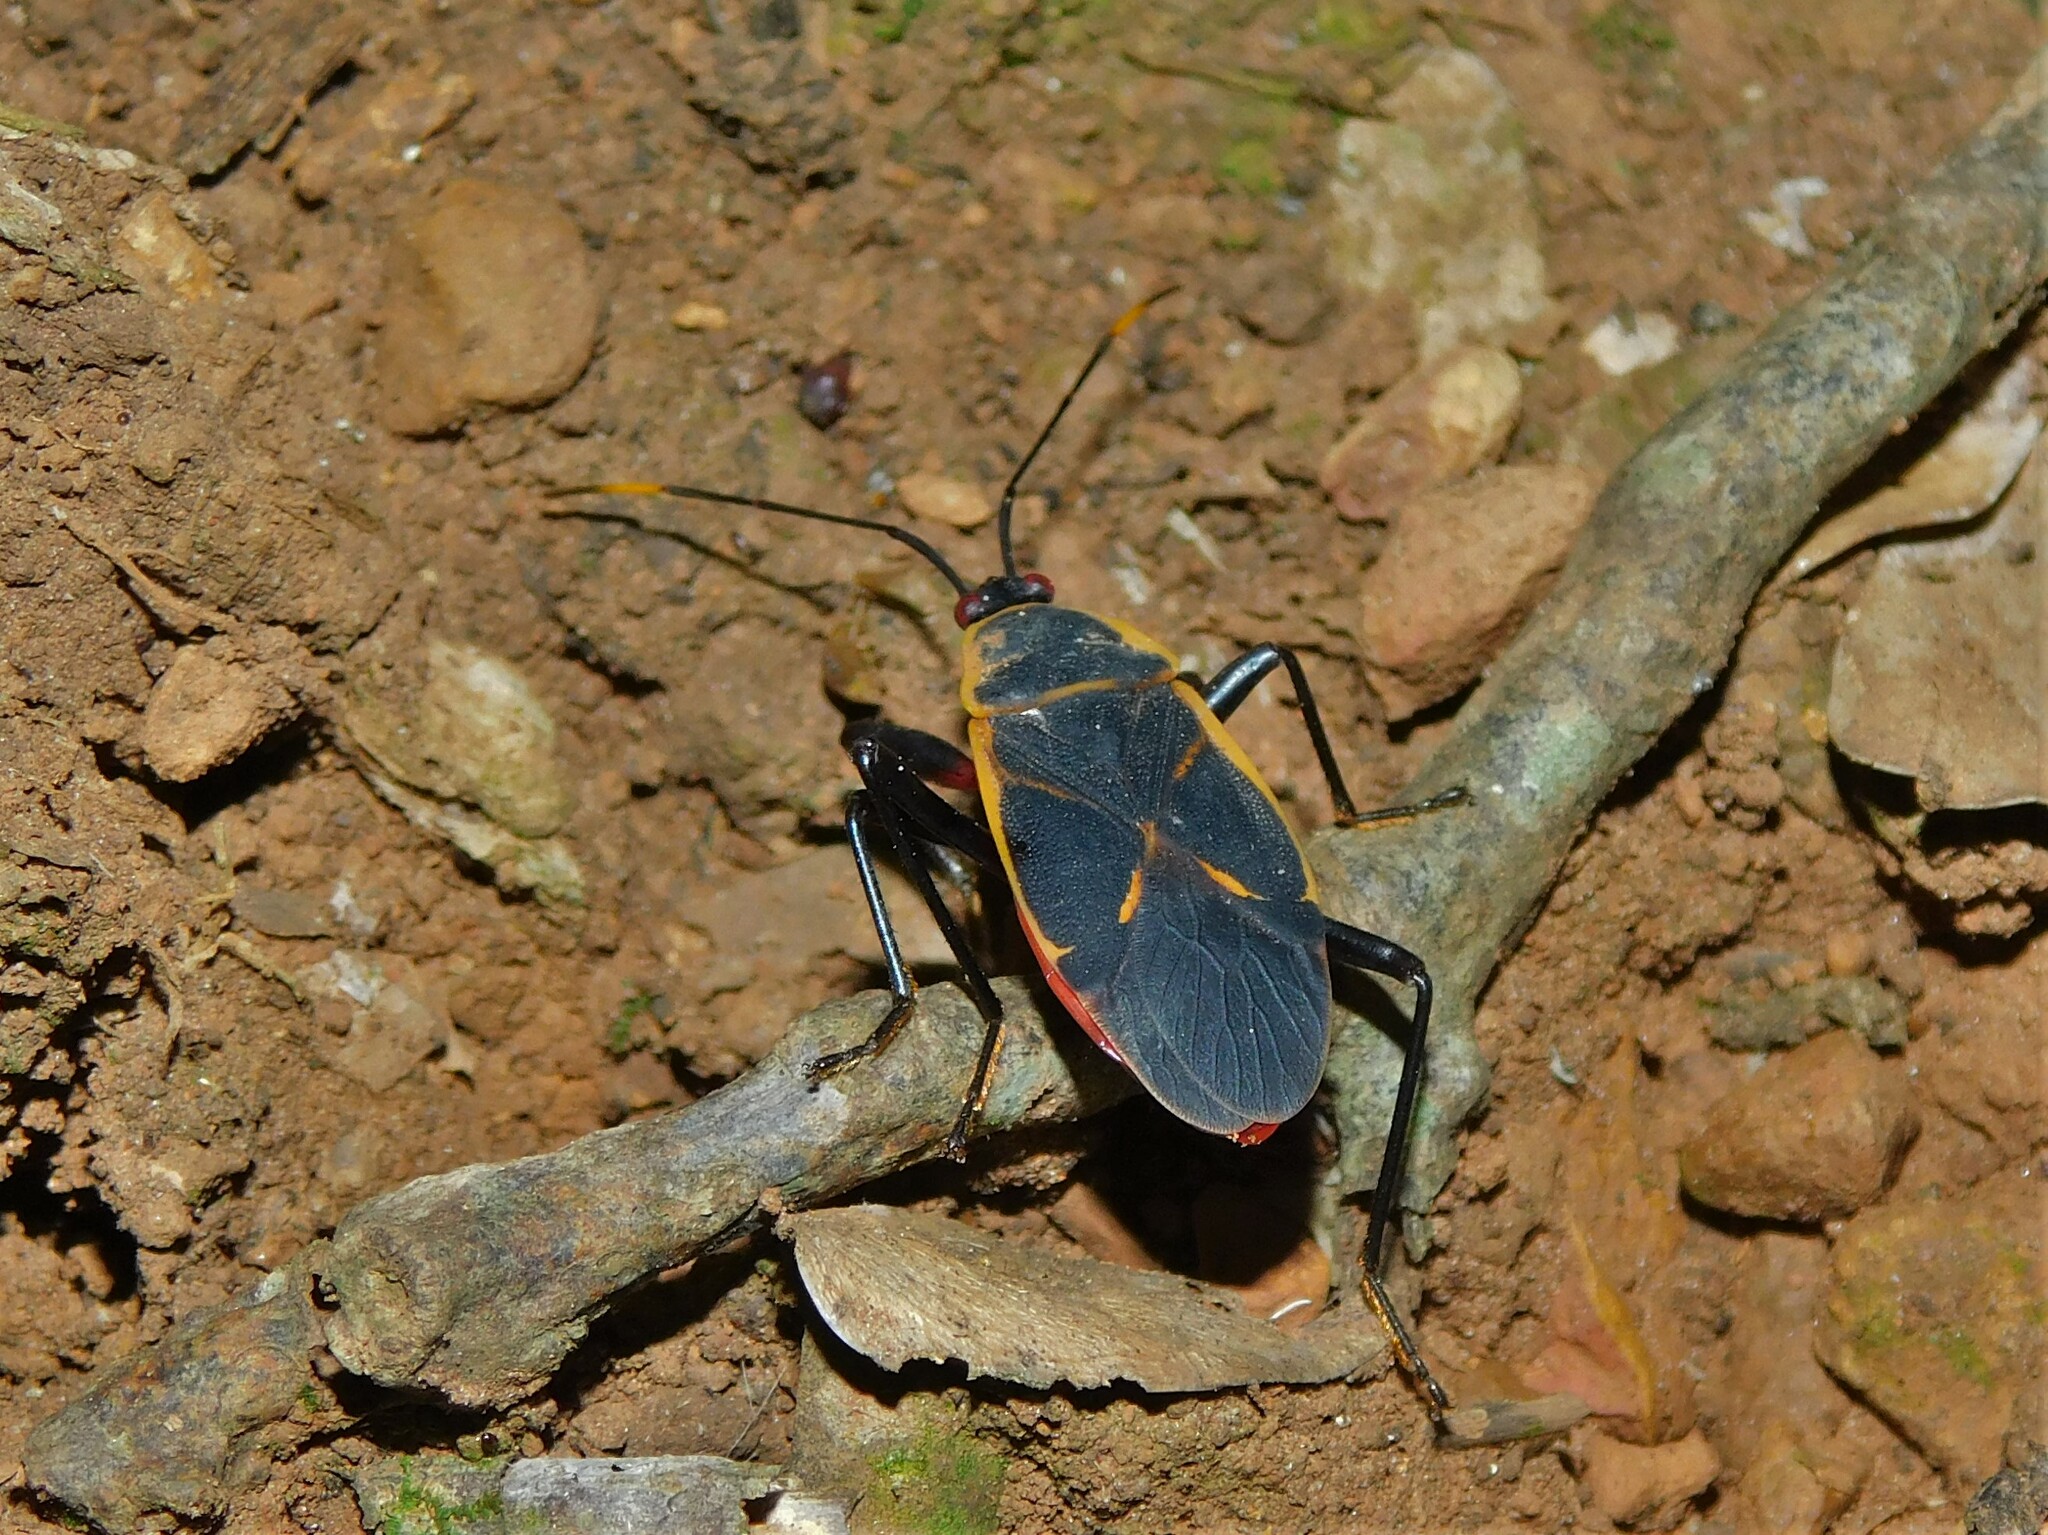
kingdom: Animalia
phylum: Arthropoda
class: Insecta
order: Hemiptera
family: Pyrrhocoridae
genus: Antilochus
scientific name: Antilochus
